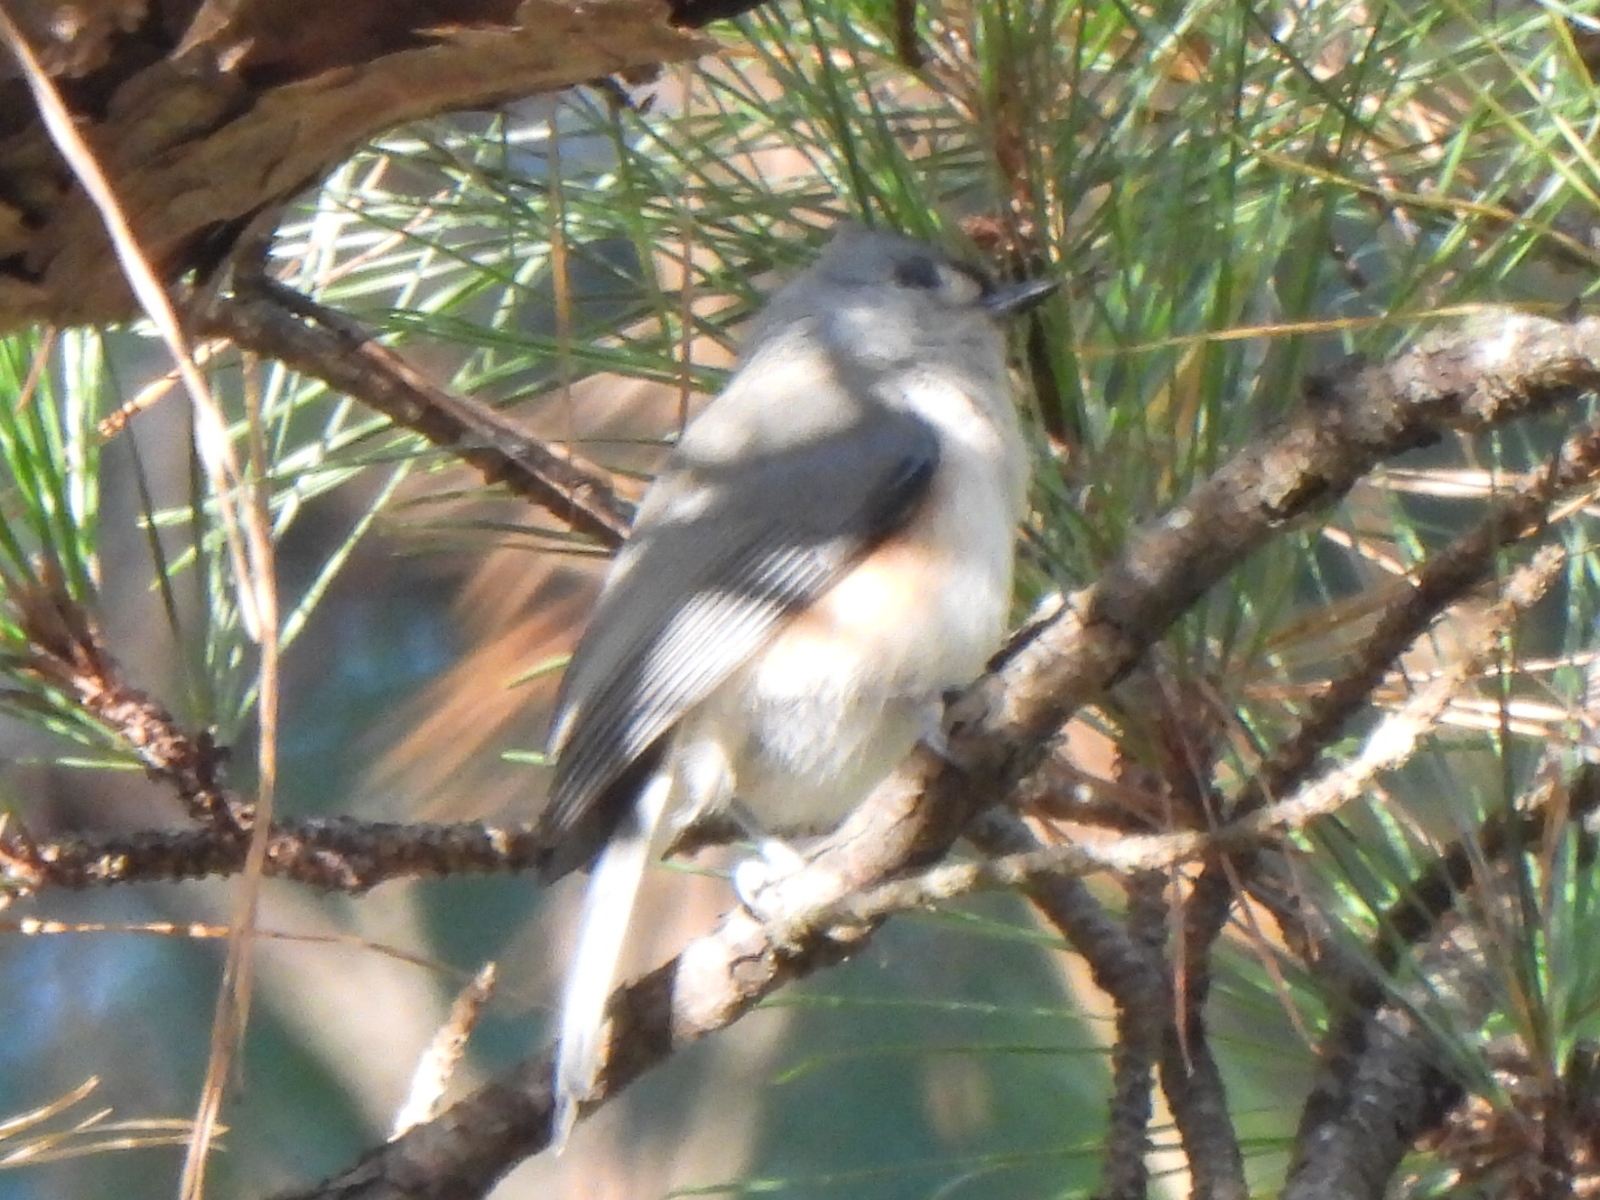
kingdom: Animalia
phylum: Chordata
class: Aves
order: Passeriformes
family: Paridae
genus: Baeolophus
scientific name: Baeolophus bicolor
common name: Tufted titmouse
